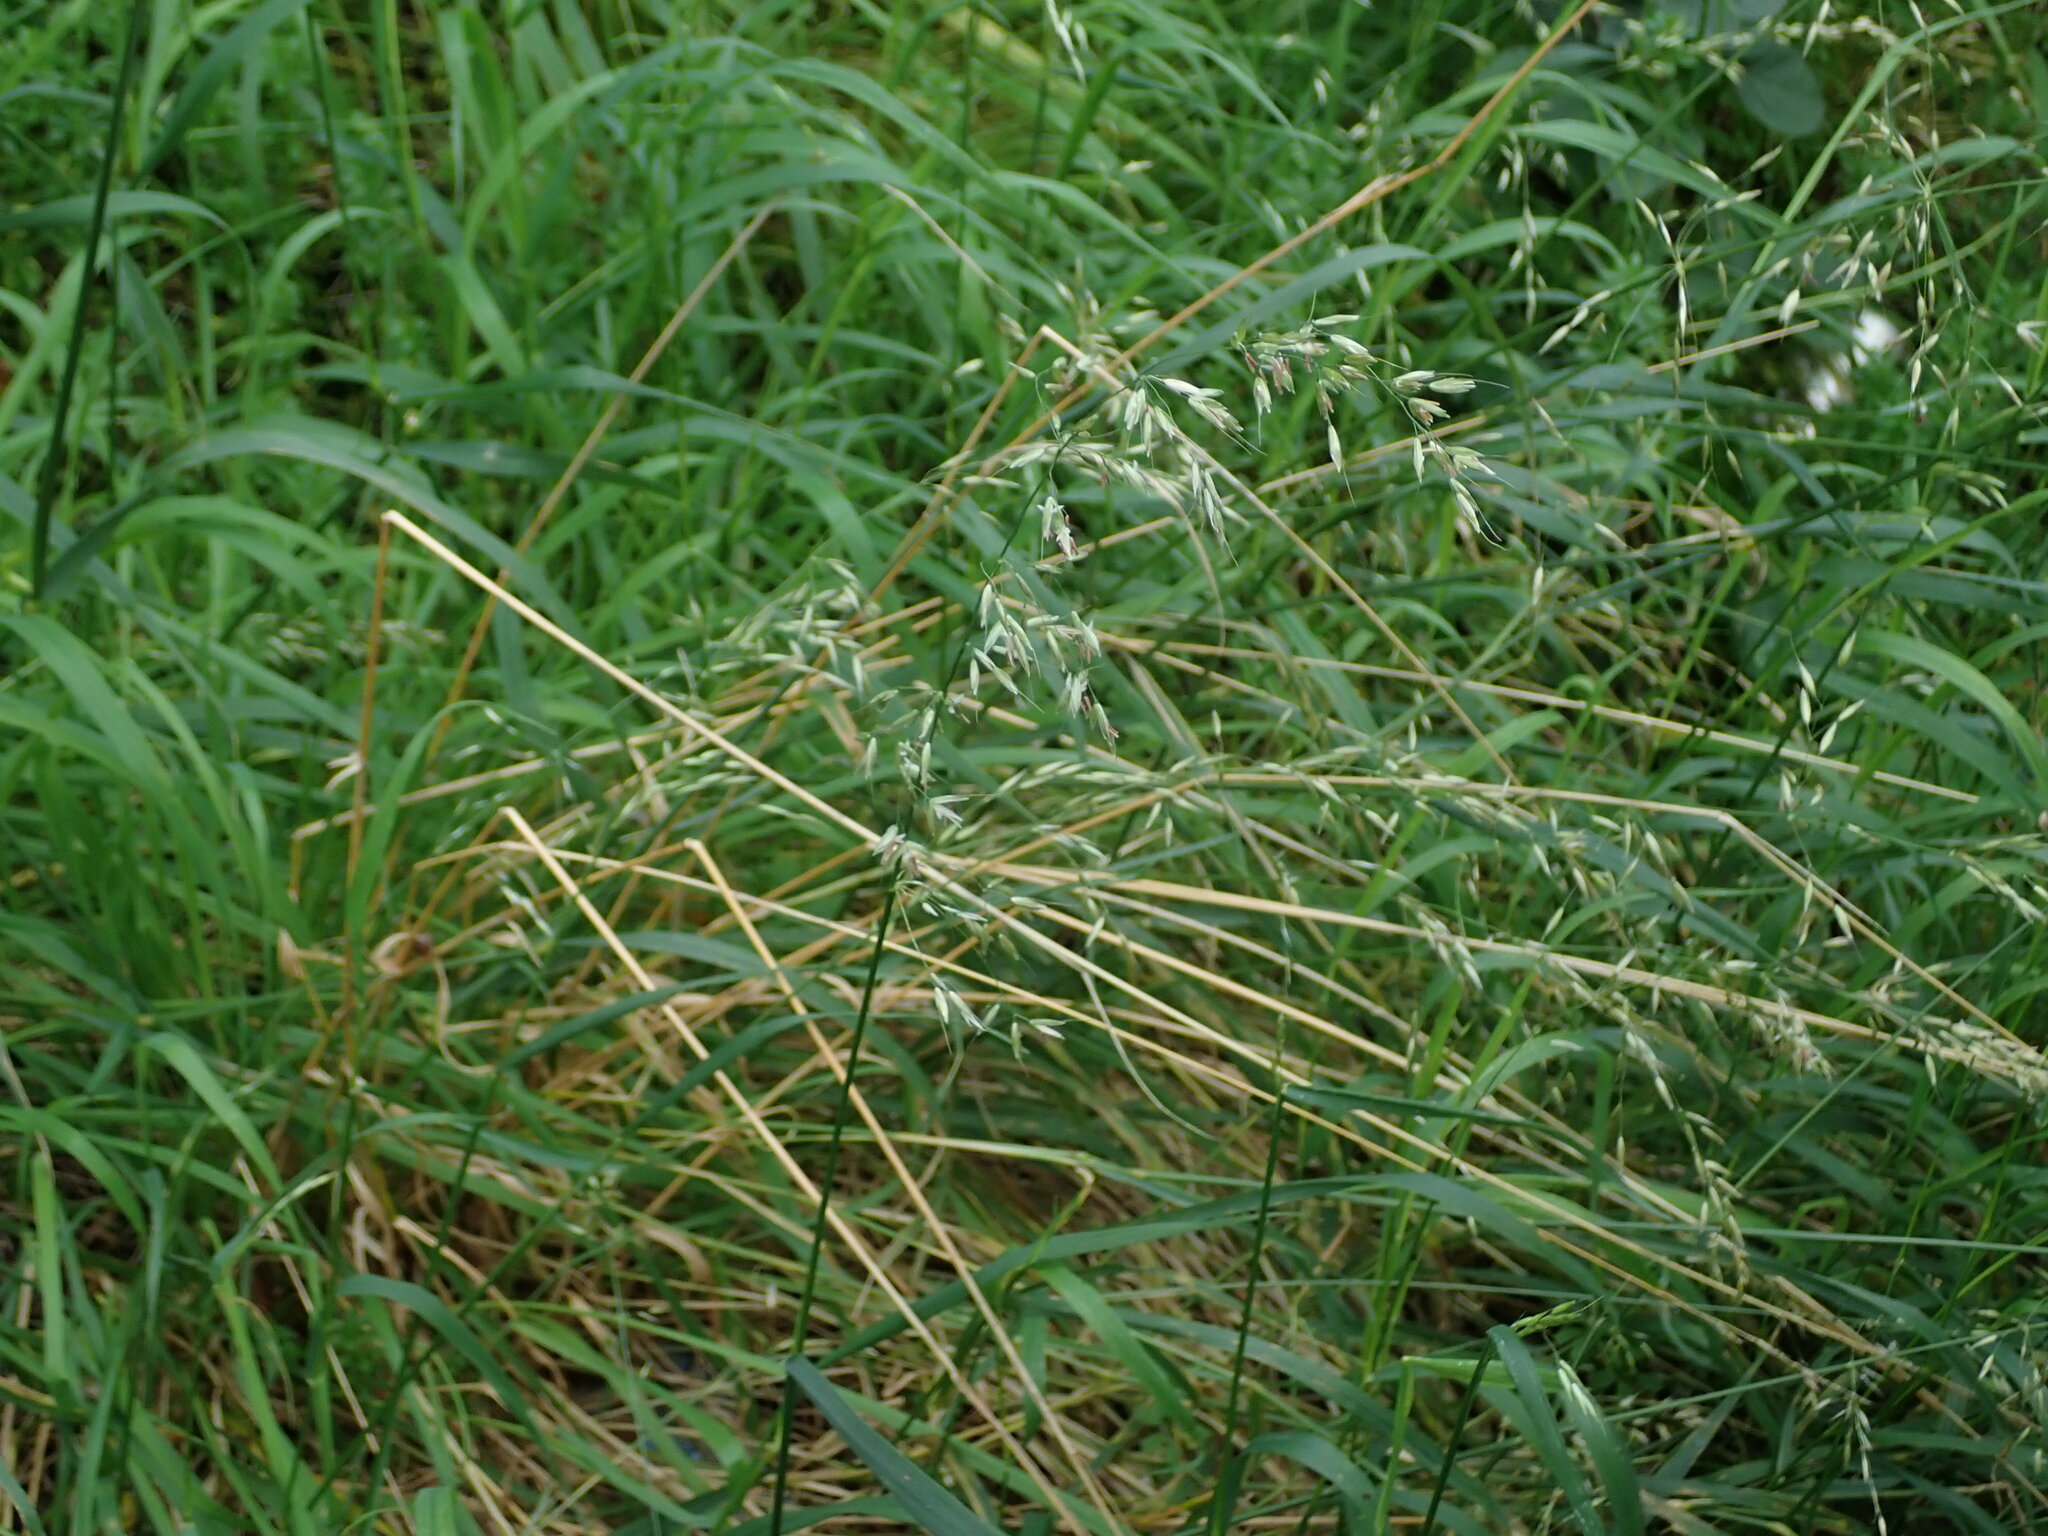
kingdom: Plantae
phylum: Tracheophyta
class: Liliopsida
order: Poales
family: Poaceae
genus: Arrhenatherum
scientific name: Arrhenatherum elatius
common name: Tall oatgrass
